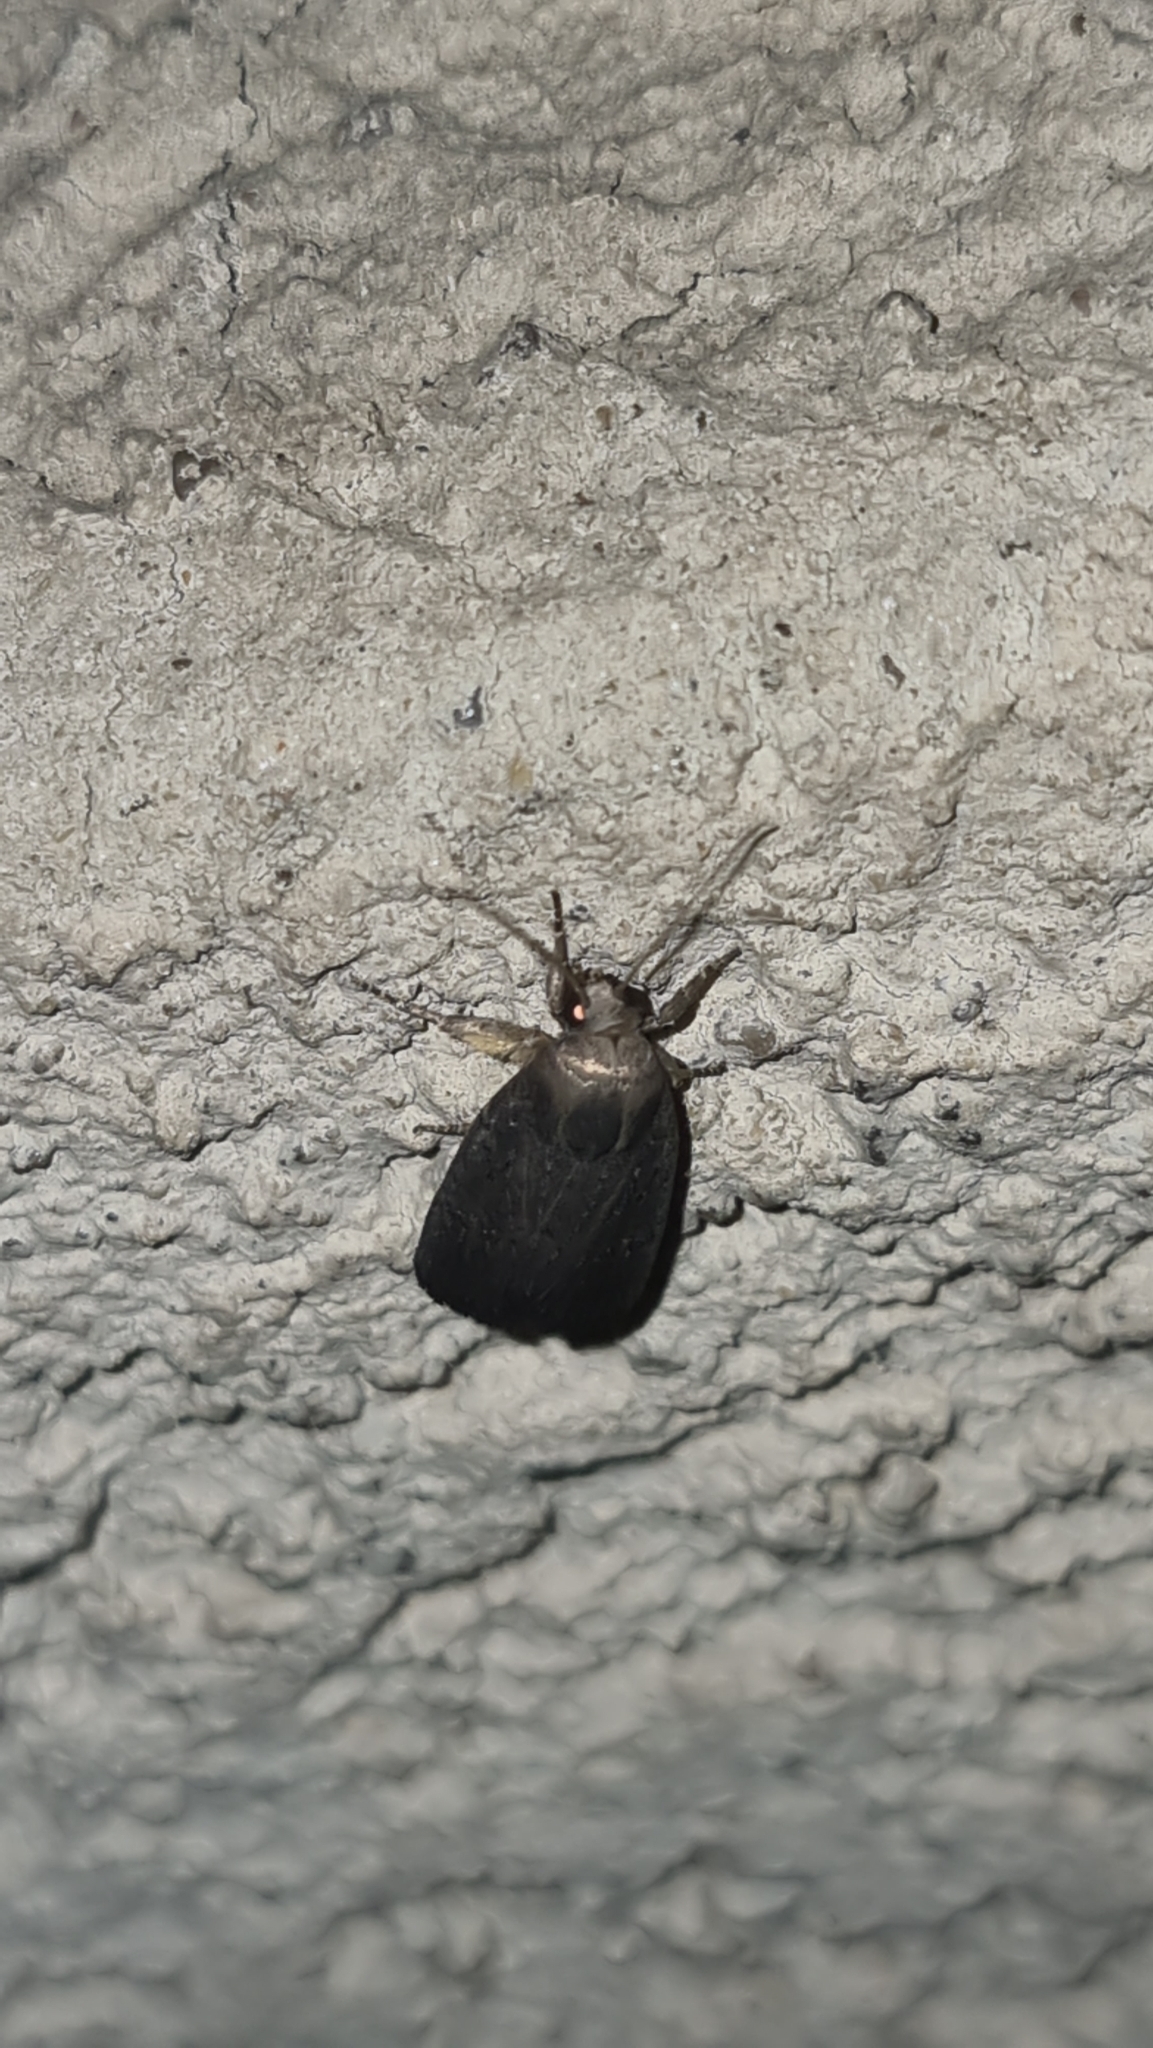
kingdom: Animalia
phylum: Arthropoda
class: Insecta
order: Lepidoptera
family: Noctuidae
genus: Athetis
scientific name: Athetis hospes
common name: Porter's rustic
